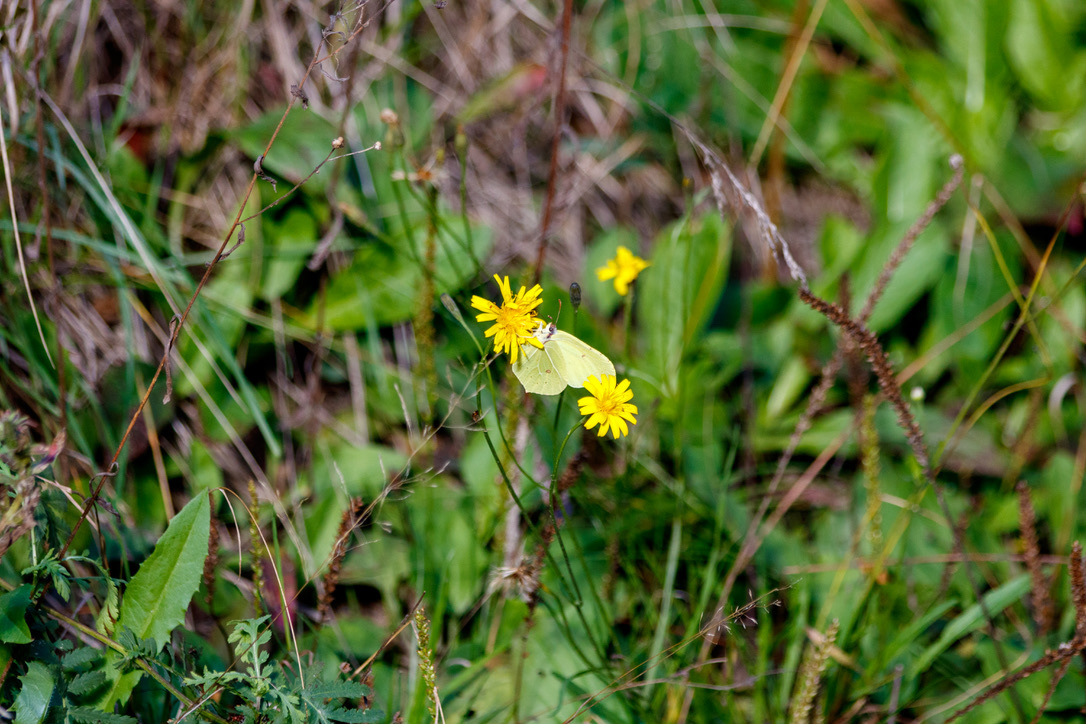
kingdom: Animalia
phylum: Arthropoda
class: Insecta
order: Lepidoptera
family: Pieridae
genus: Gonepteryx
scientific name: Gonepteryx rhamni
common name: Brimstone
